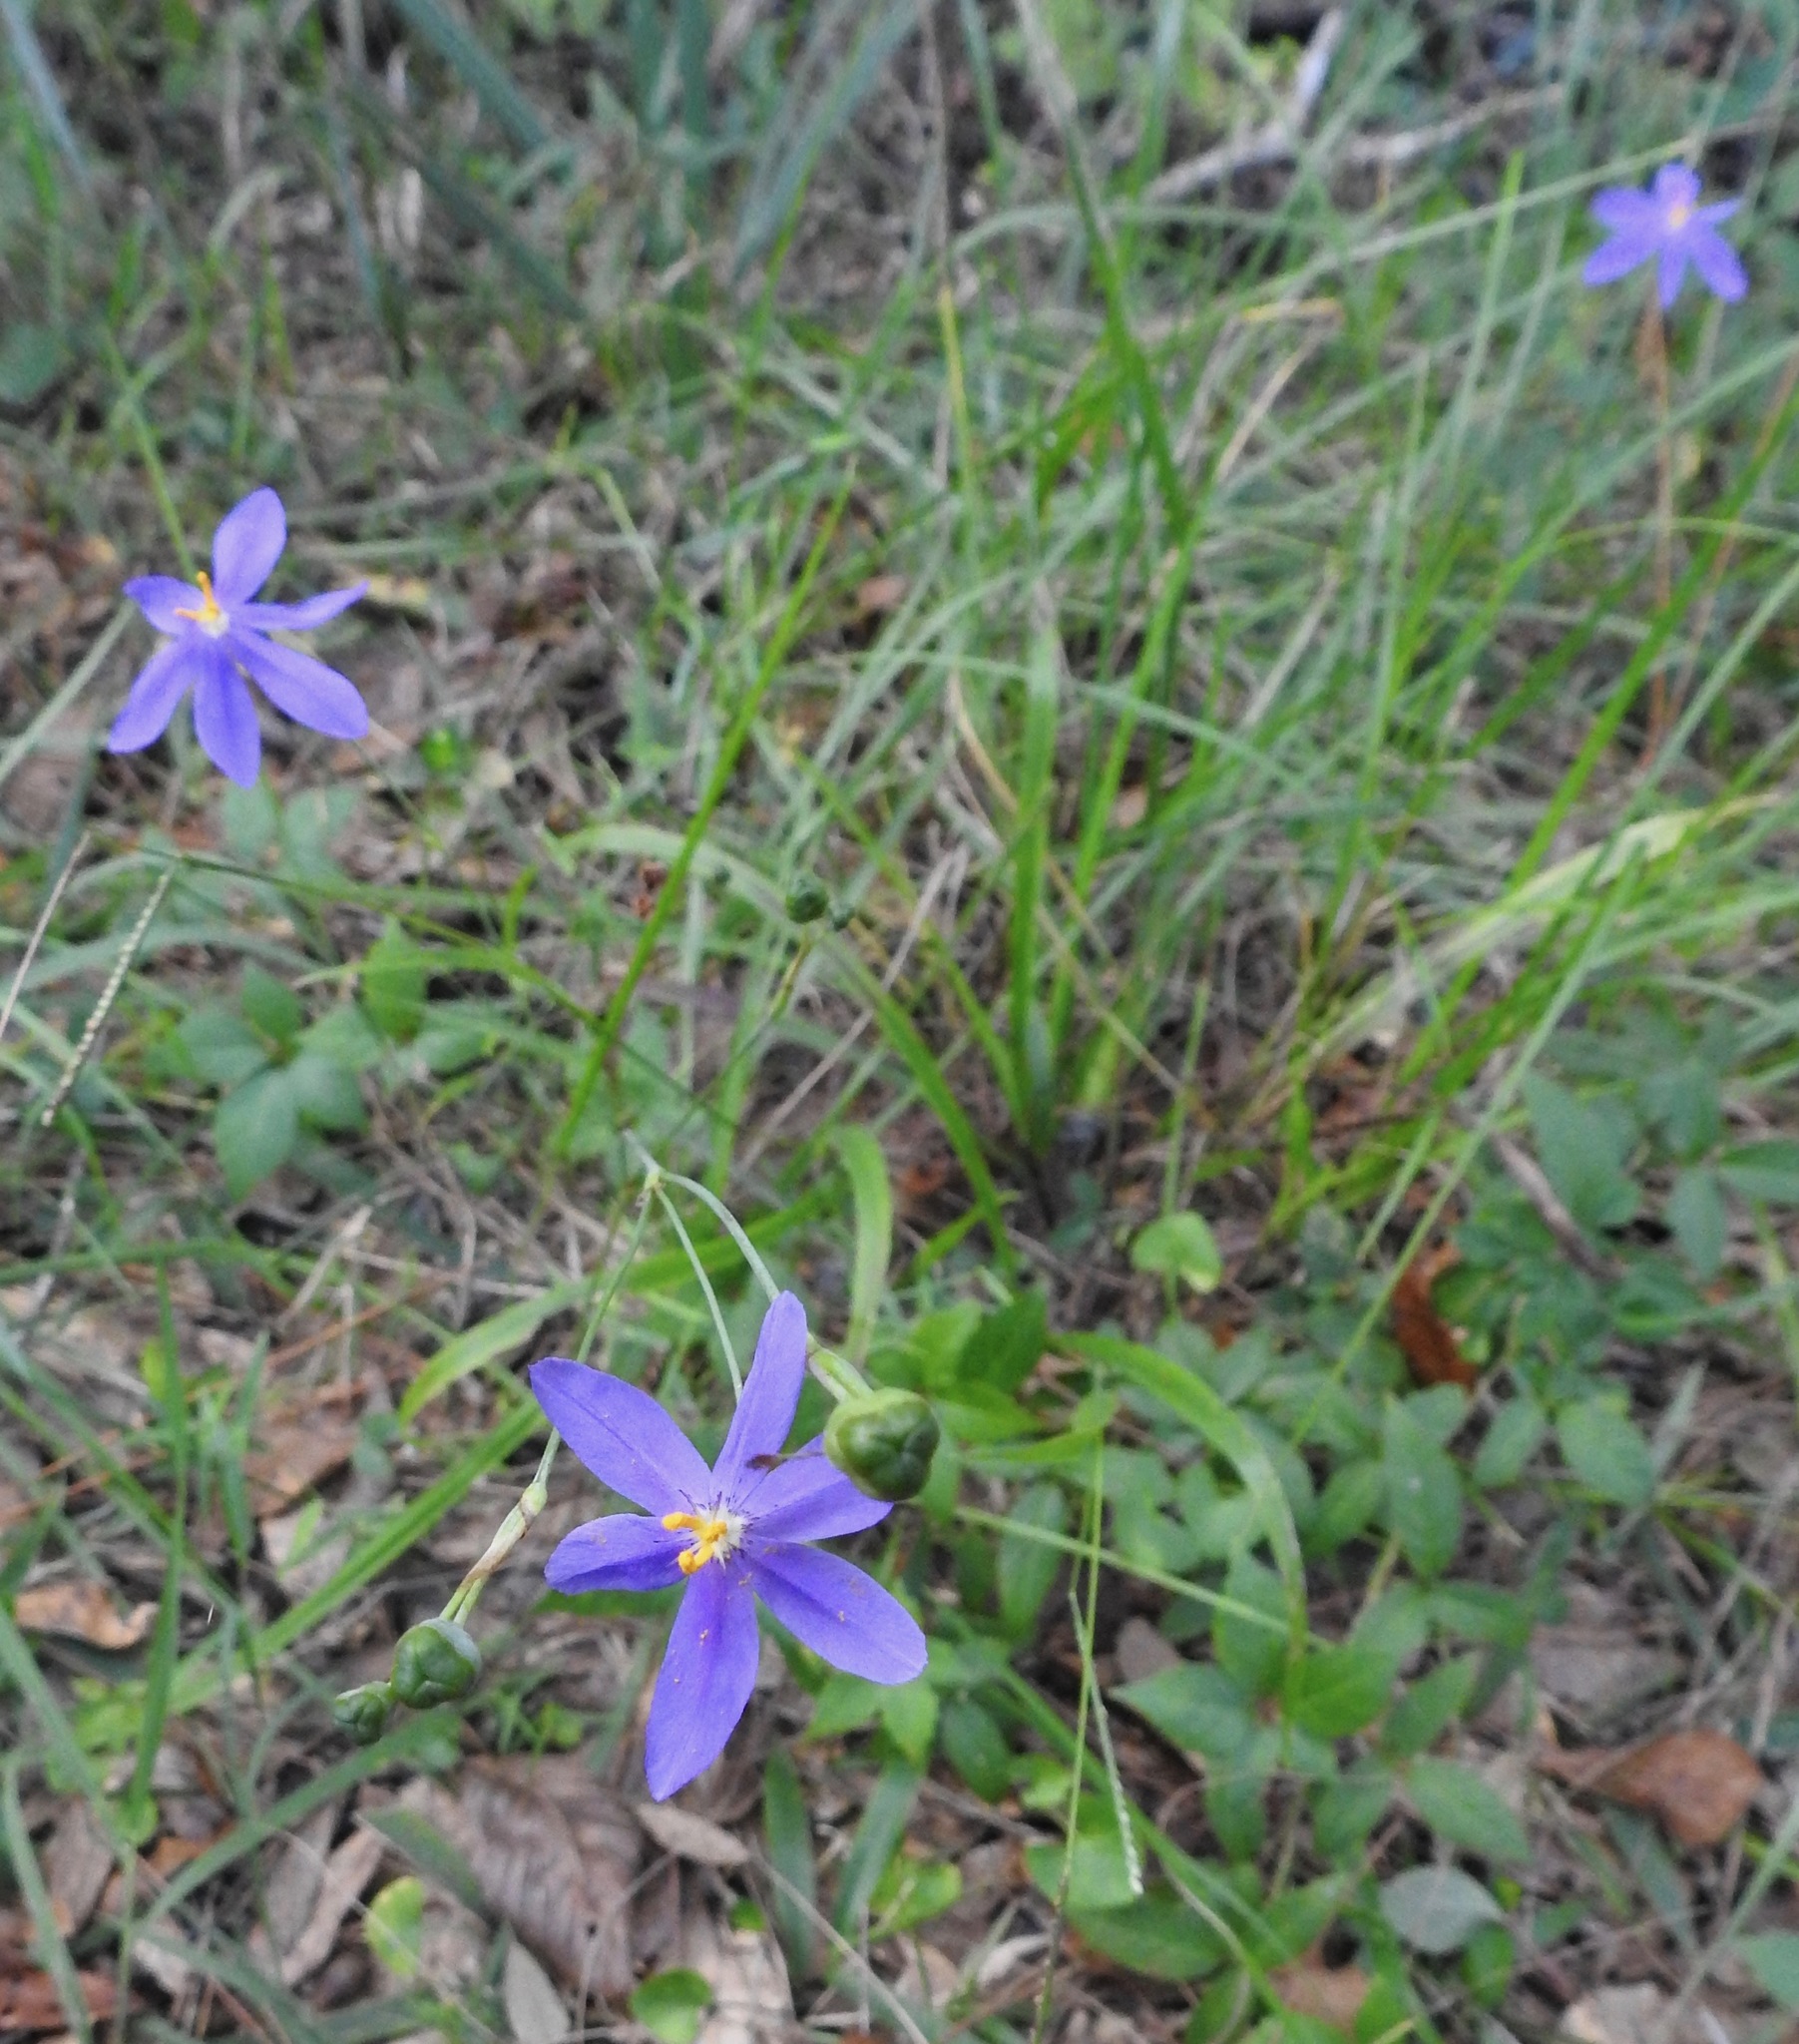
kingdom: Plantae
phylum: Tracheophyta
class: Liliopsida
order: Asparagales
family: Iridaceae
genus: Nemastylis
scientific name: Nemastylis floridana
